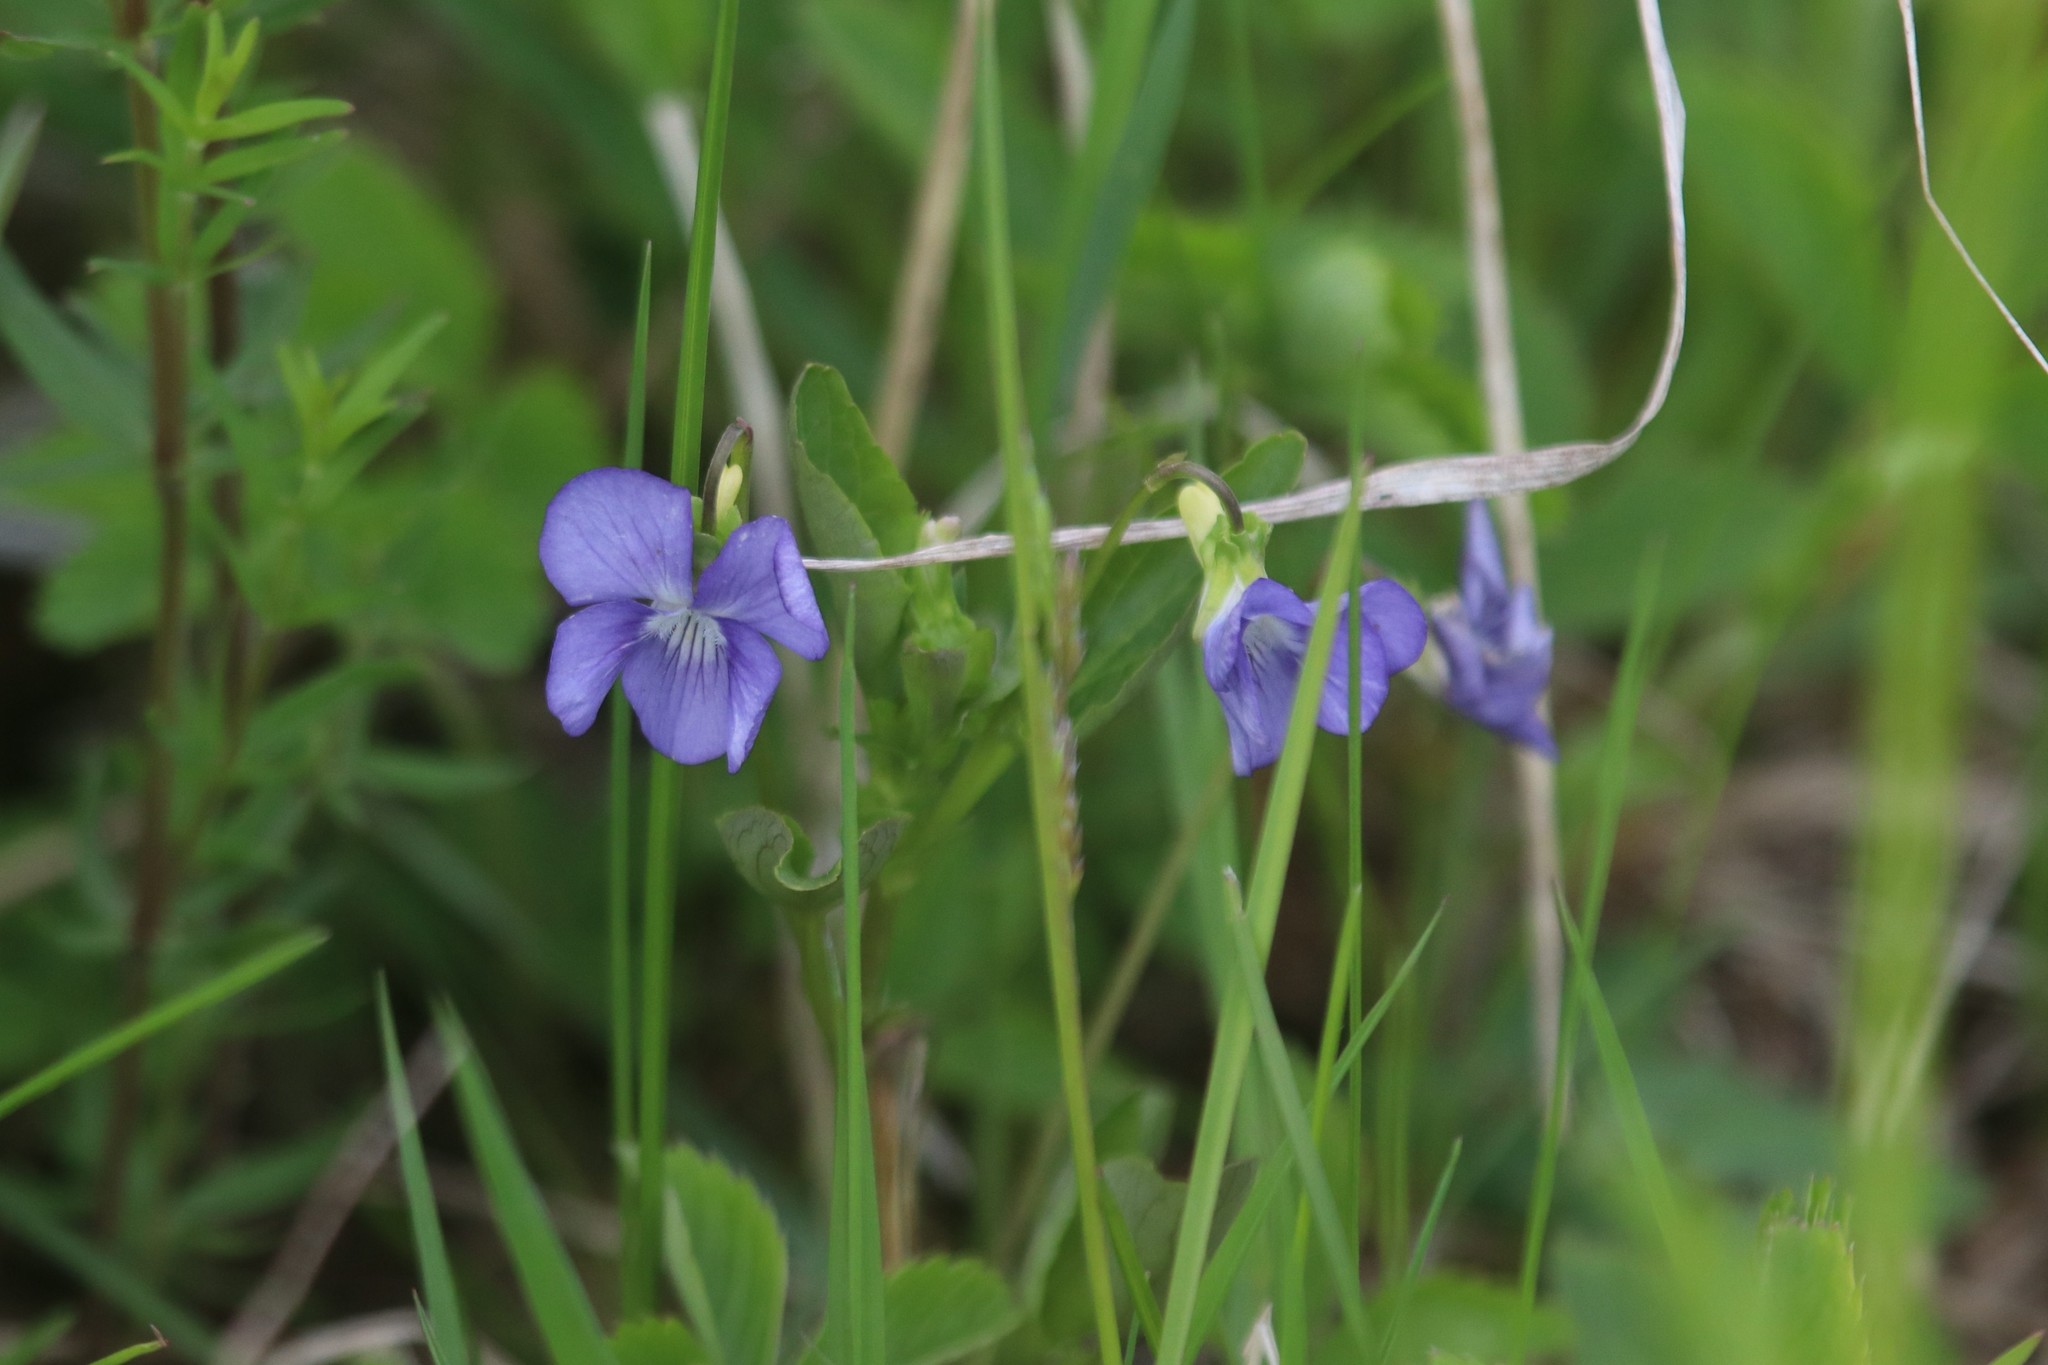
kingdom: Plantae
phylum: Tracheophyta
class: Magnoliopsida
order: Malpighiales
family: Violaceae
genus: Viola
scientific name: Viola canina
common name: Heath dog-violet
